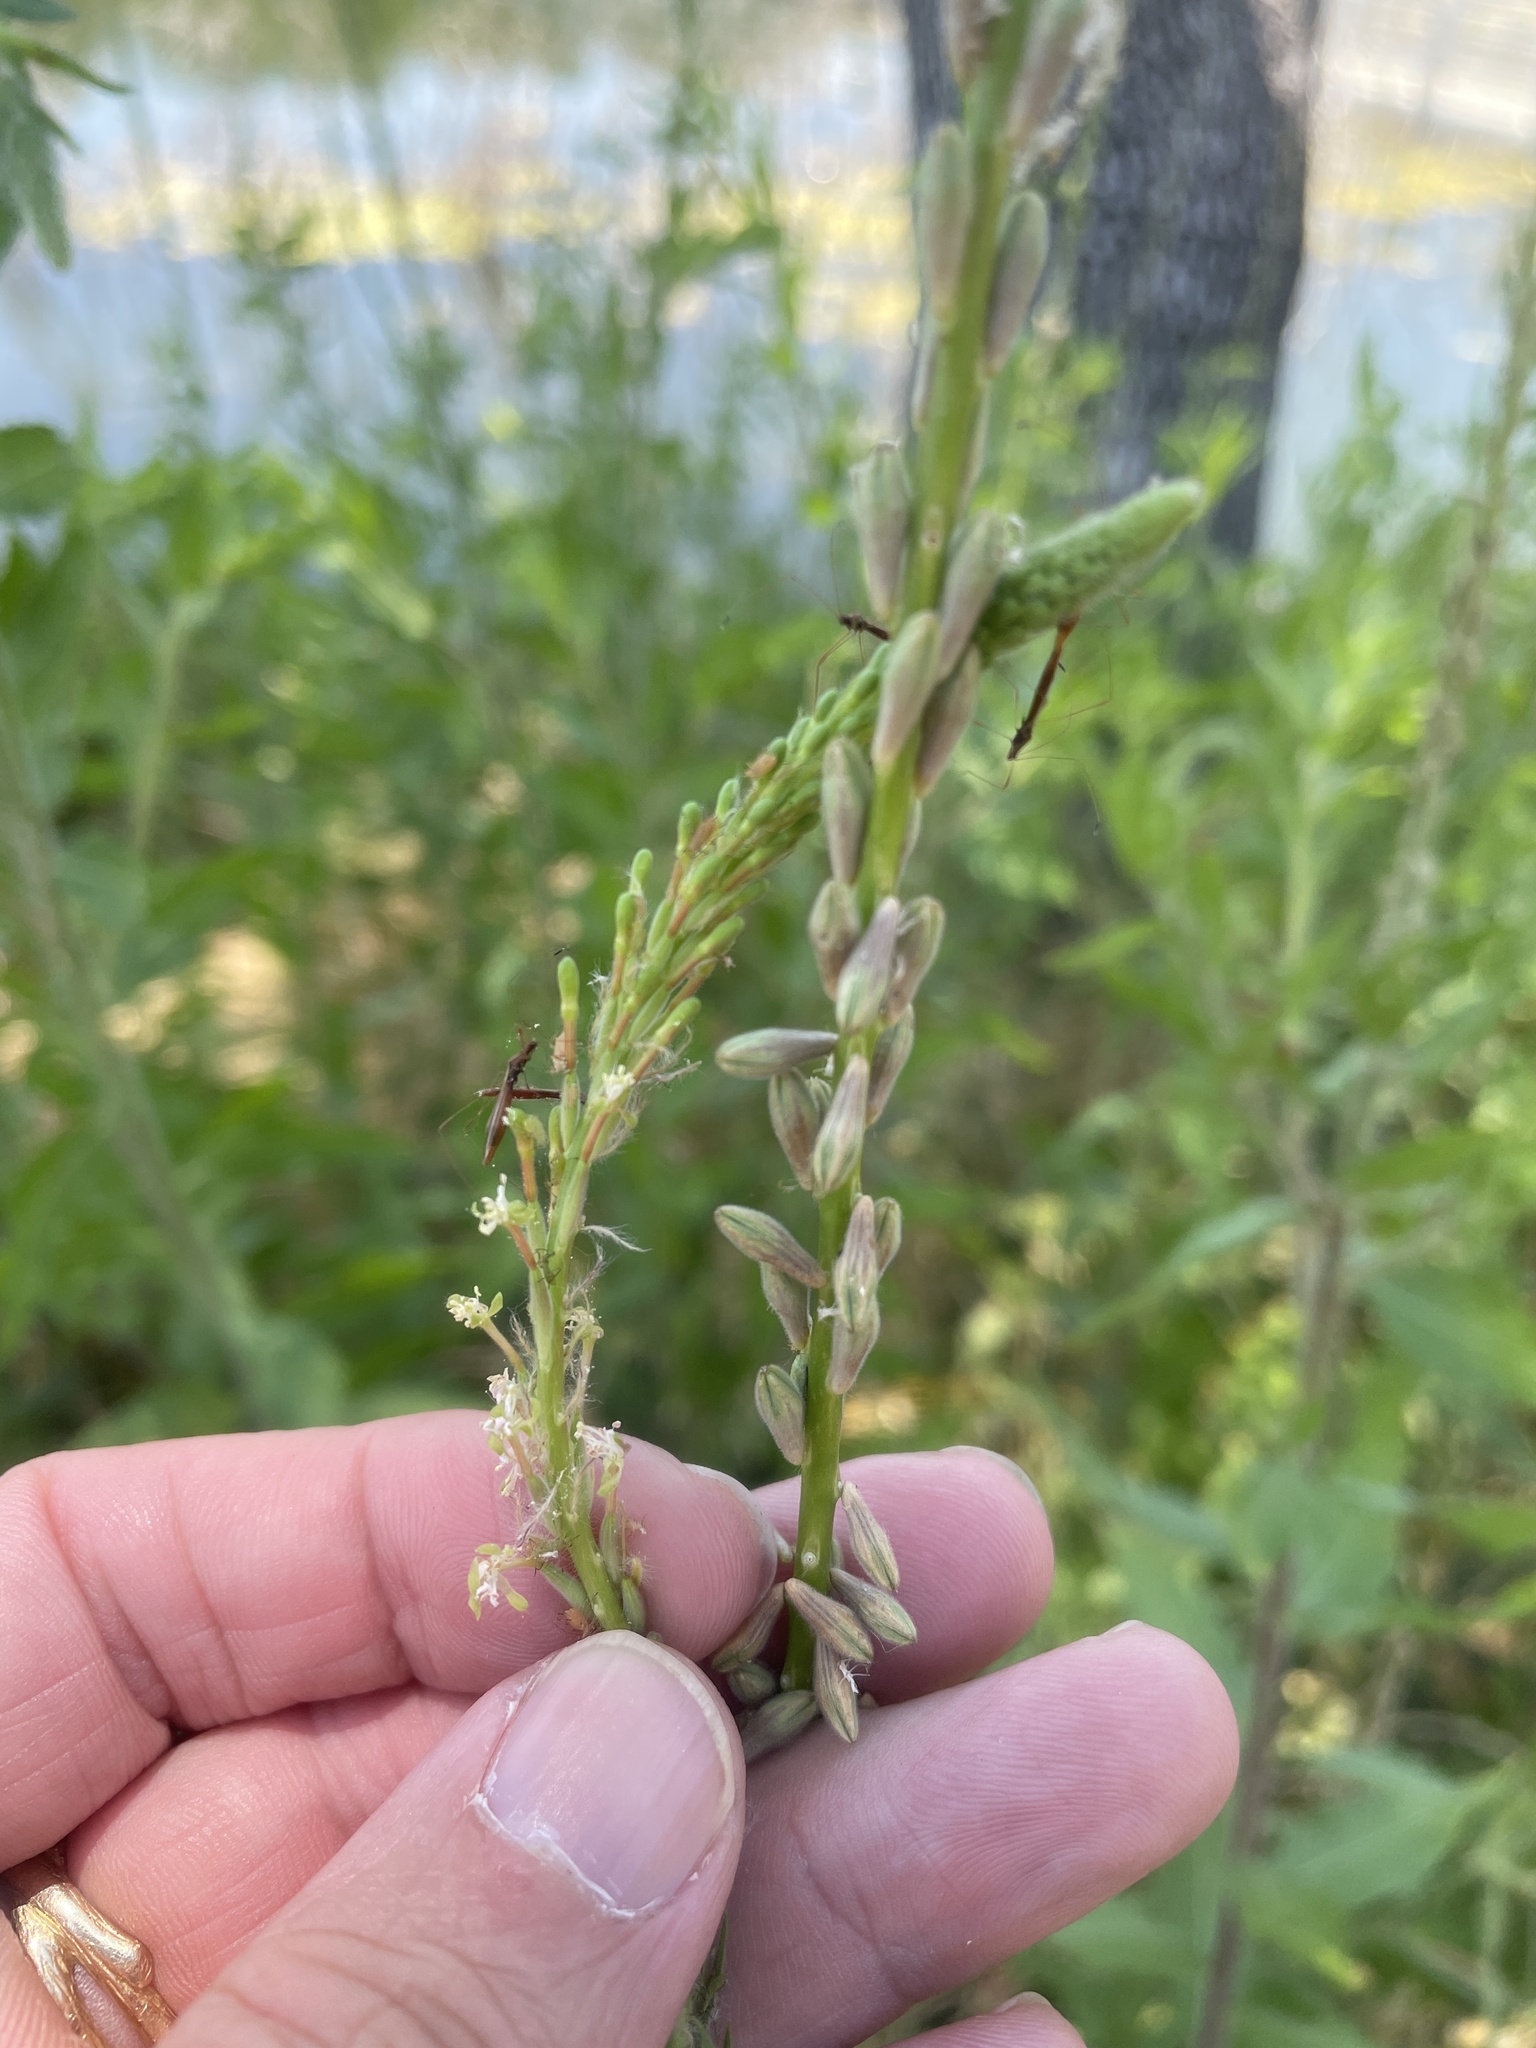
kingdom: Plantae
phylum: Tracheophyta
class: Magnoliopsida
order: Myrtales
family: Onagraceae
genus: Oenothera
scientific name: Oenothera curtiflora
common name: Velvetweed
